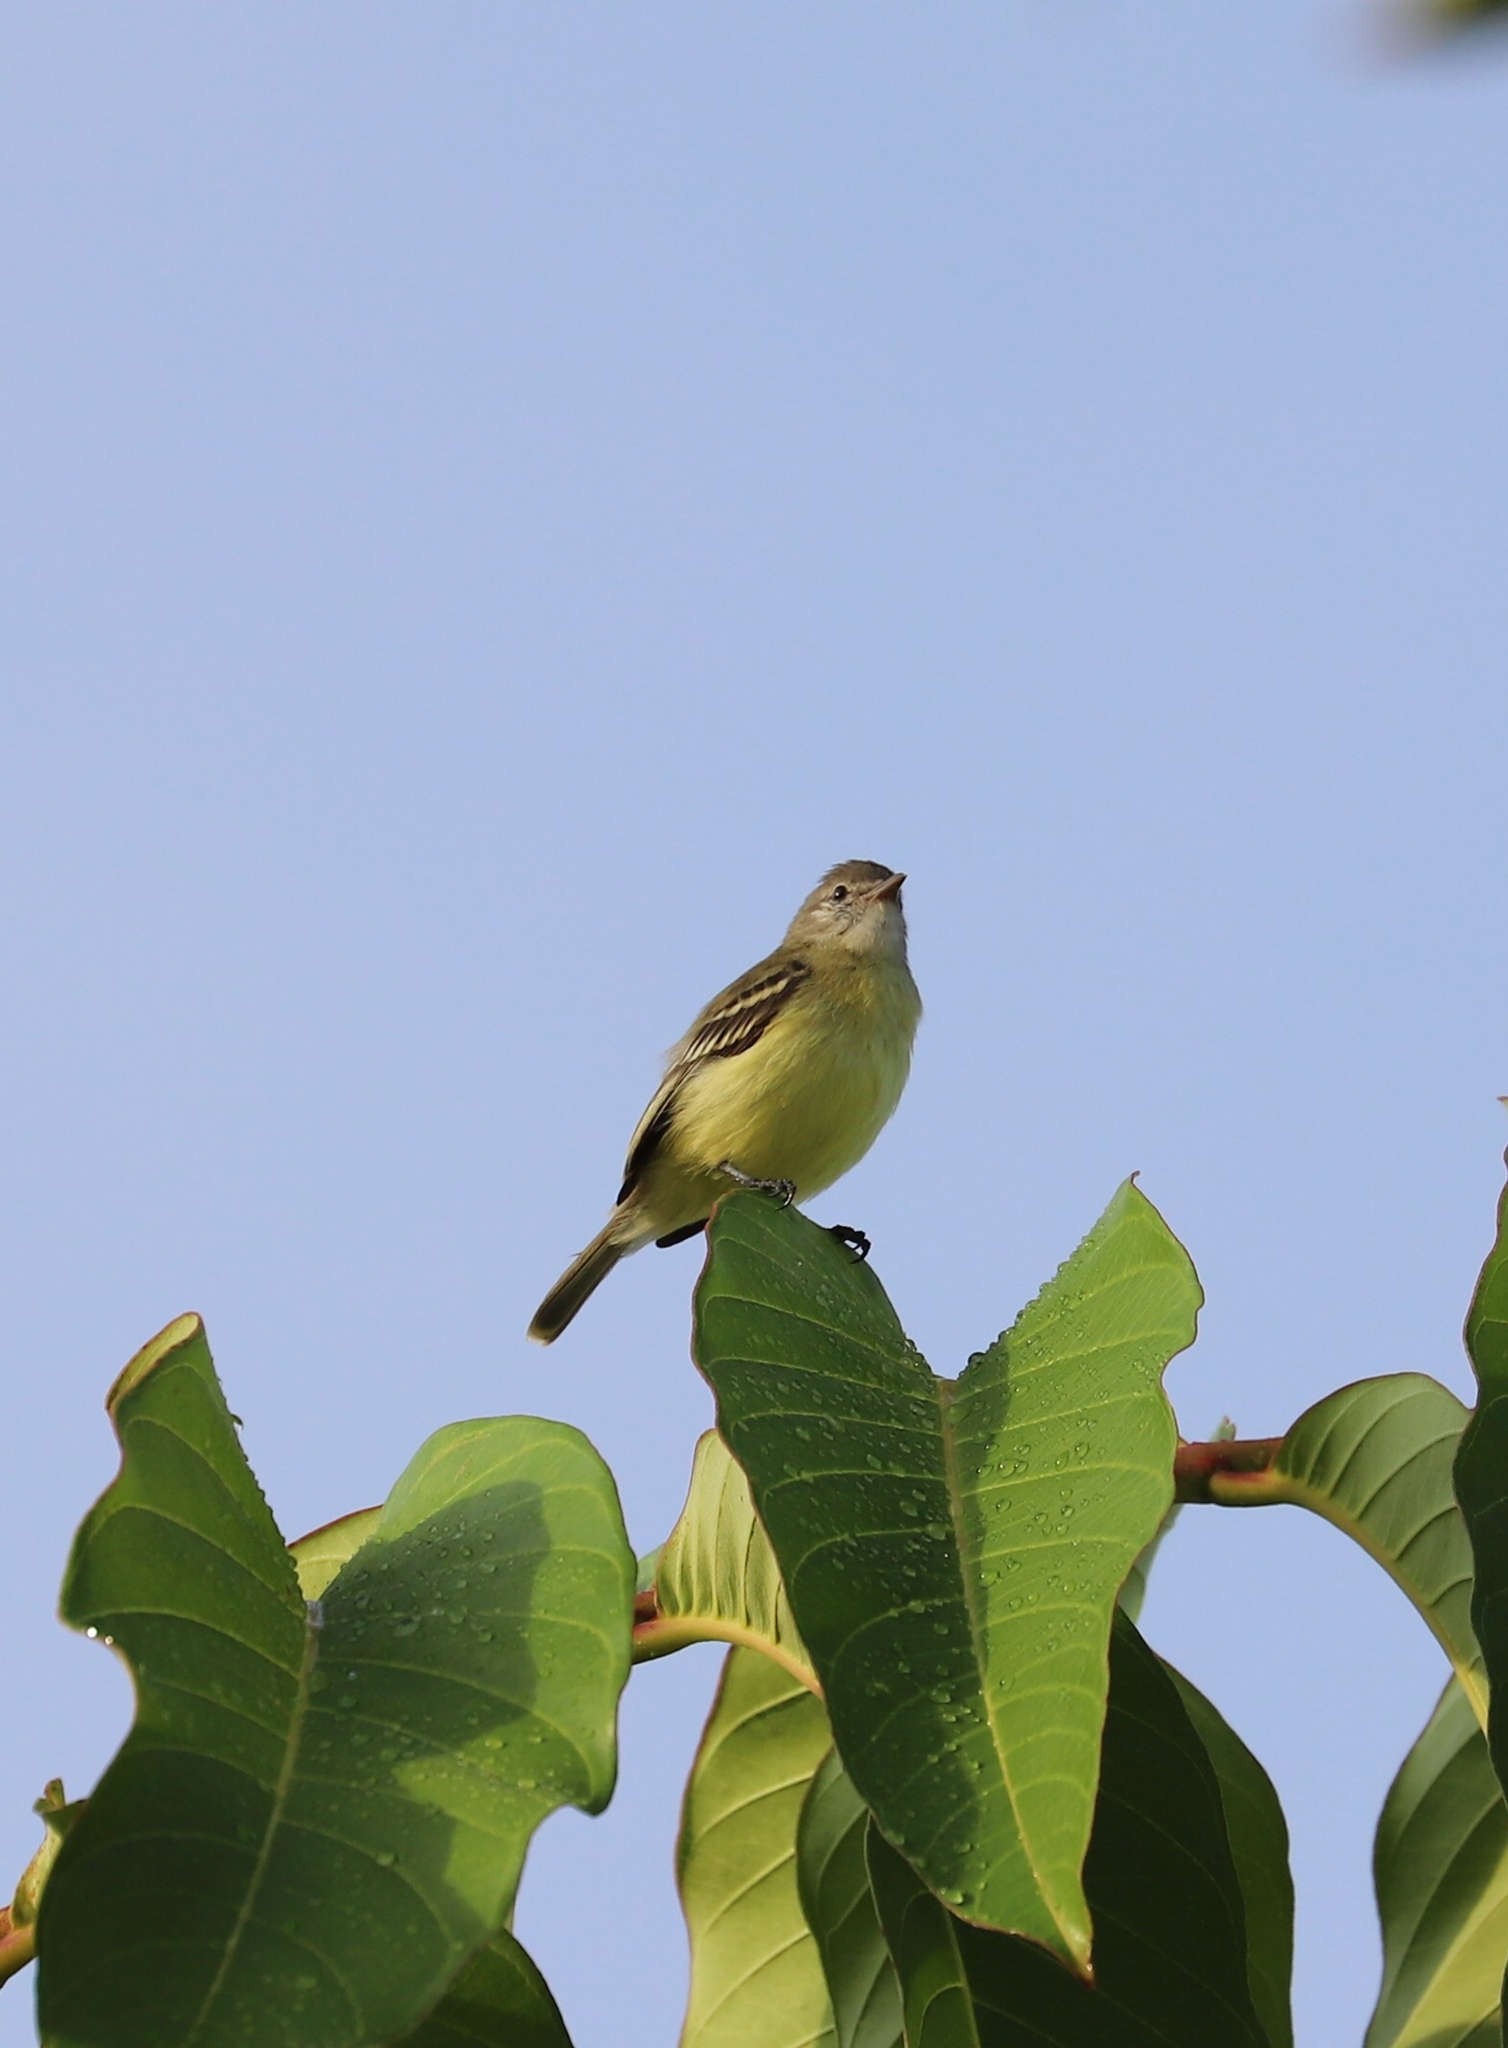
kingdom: Animalia
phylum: Chordata
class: Aves
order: Passeriformes
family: Tyrannidae
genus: Camptostoma
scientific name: Camptostoma obsoletum
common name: Southern beardless-tyrannulet
